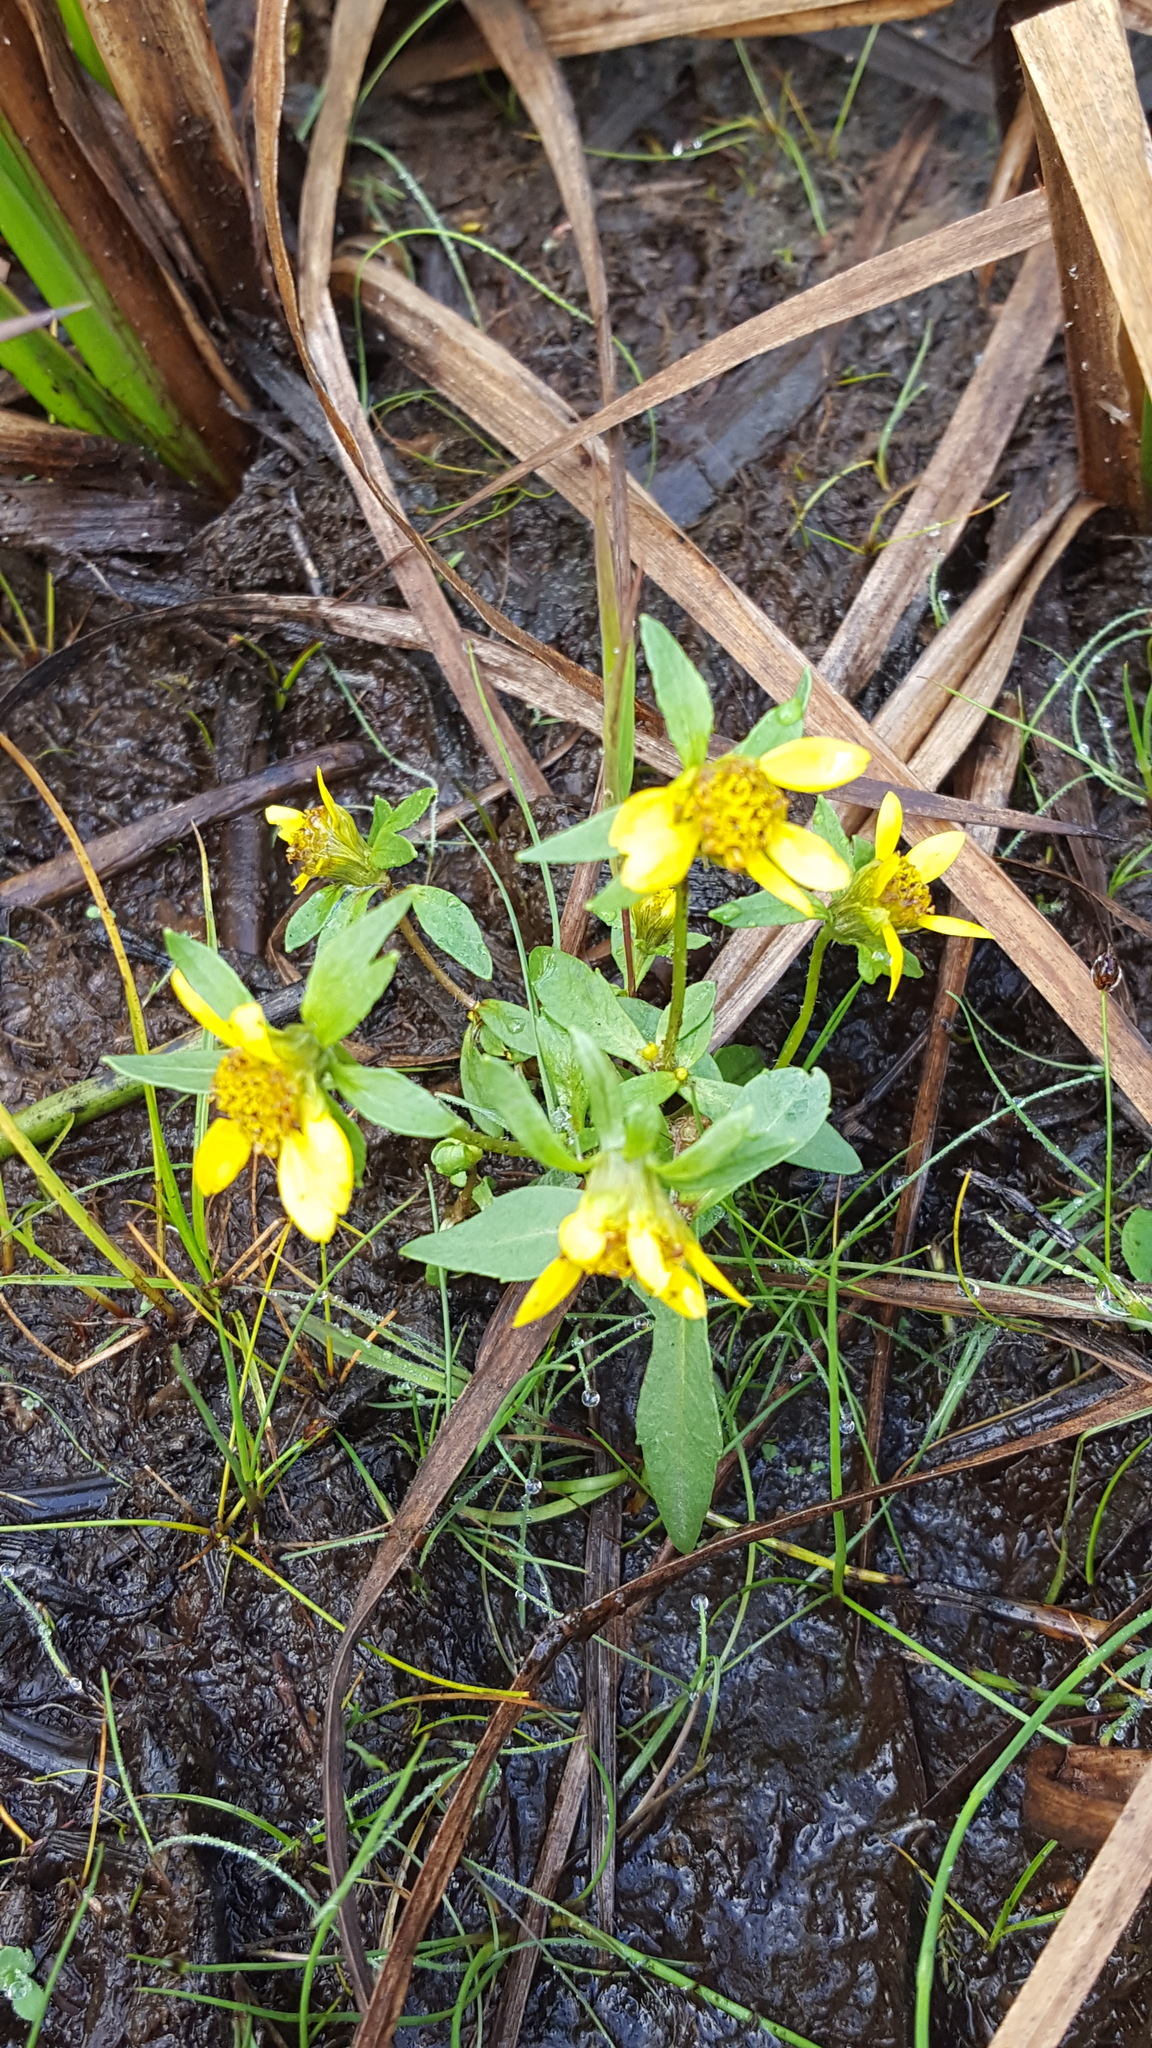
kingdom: Plantae
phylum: Tracheophyta
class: Magnoliopsida
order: Asterales
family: Asteraceae
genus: Bidens
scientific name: Bidens cernua
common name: Nodding bur-marigold
